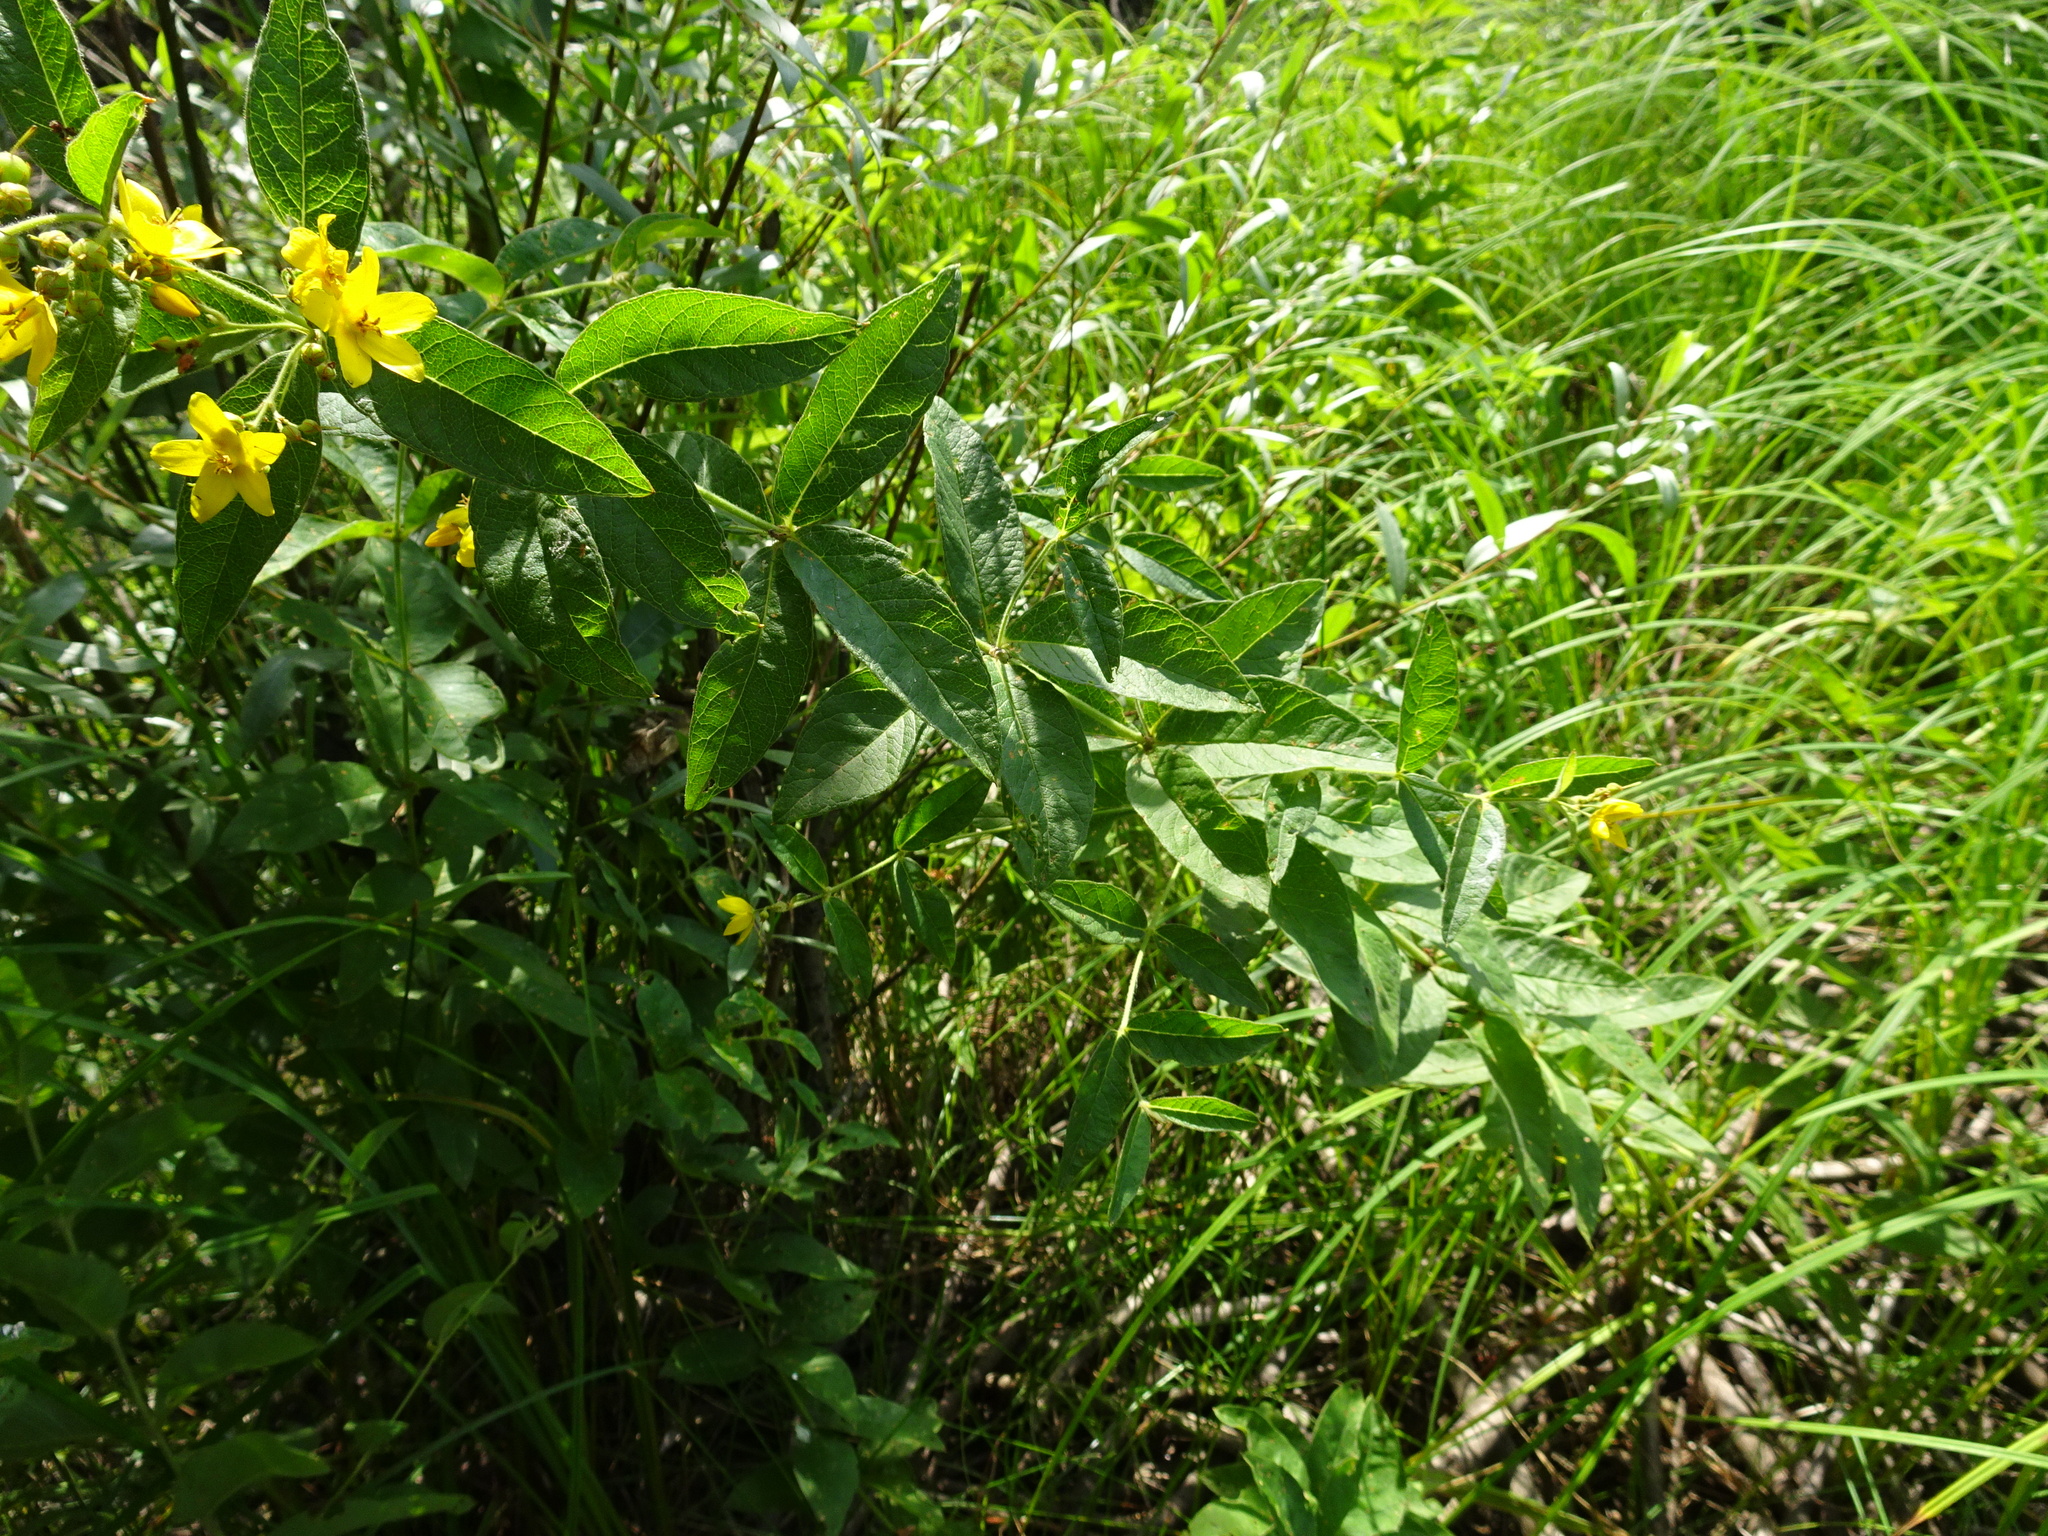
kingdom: Plantae
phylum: Tracheophyta
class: Magnoliopsida
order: Ericales
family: Primulaceae
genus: Lysimachia
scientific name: Lysimachia vulgaris
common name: Yellow loosestrife
